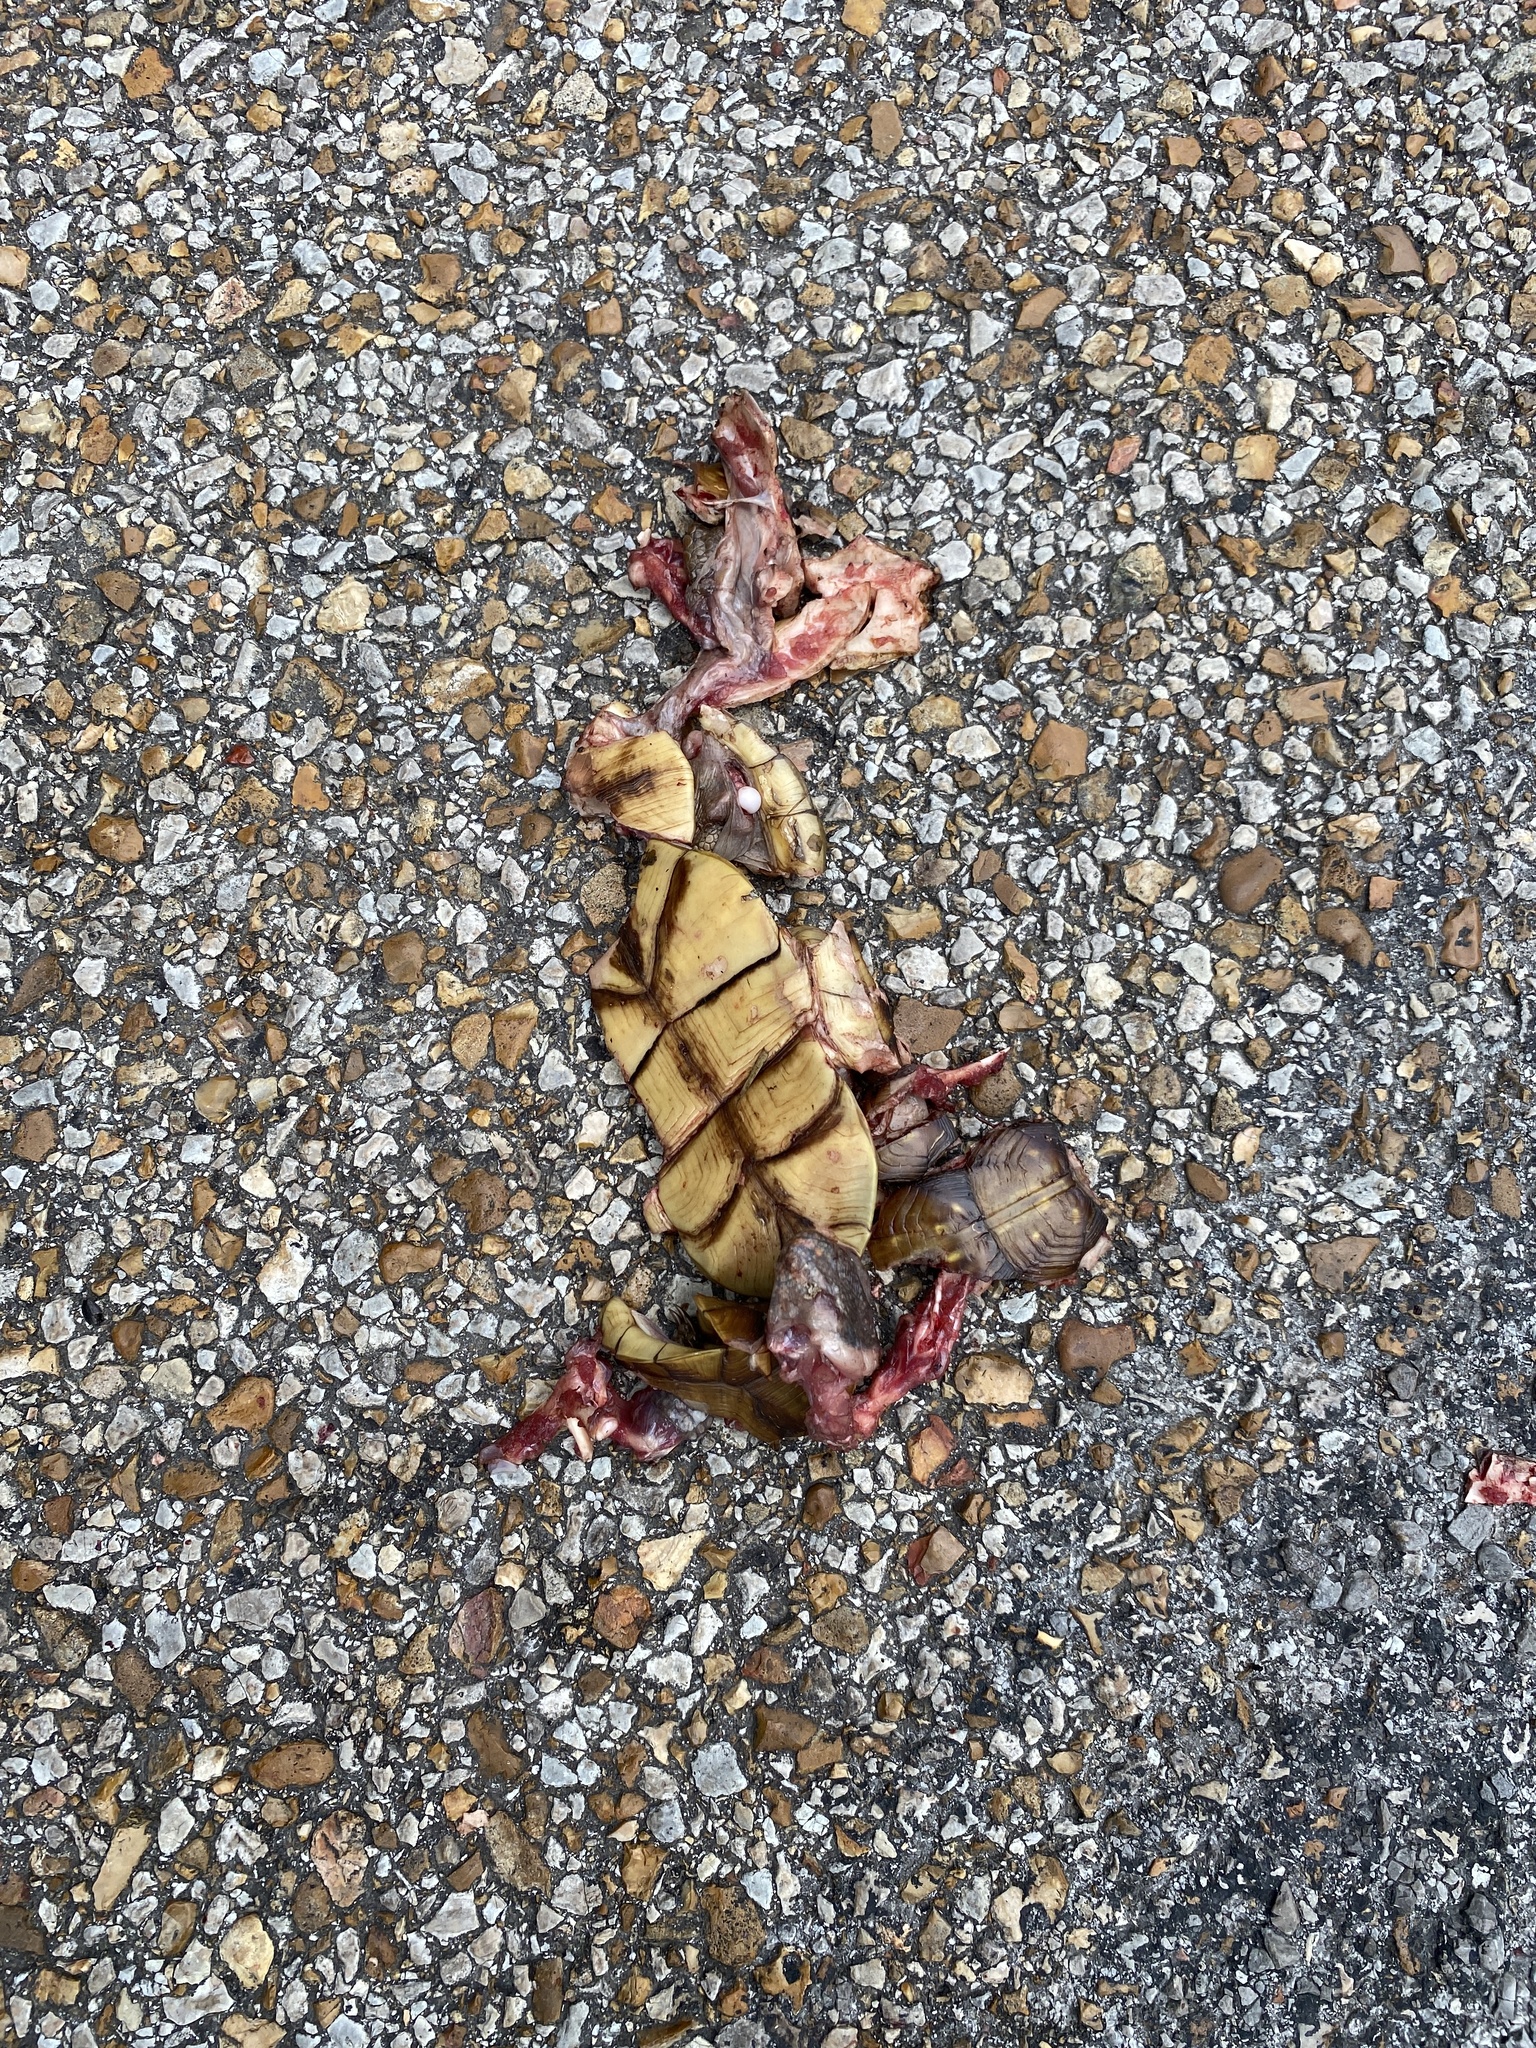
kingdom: Animalia
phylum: Chordata
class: Testudines
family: Emydidae
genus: Terrapene
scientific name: Terrapene carolina
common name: Common box turtle
